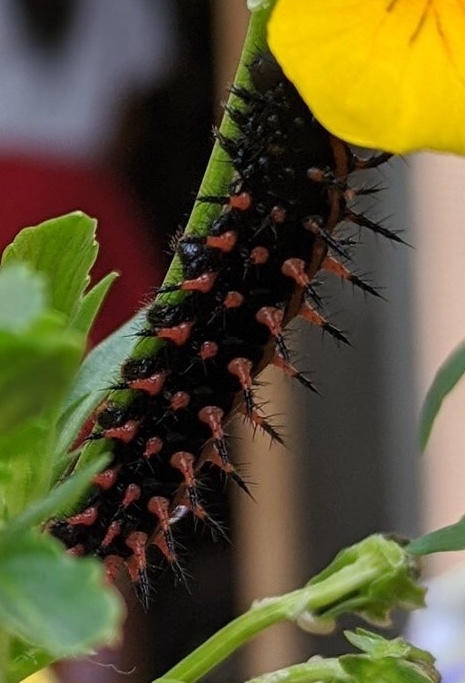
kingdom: Animalia
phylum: Arthropoda
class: Insecta
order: Lepidoptera
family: Nymphalidae
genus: Argynnis
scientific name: Argynnis hyperbius
